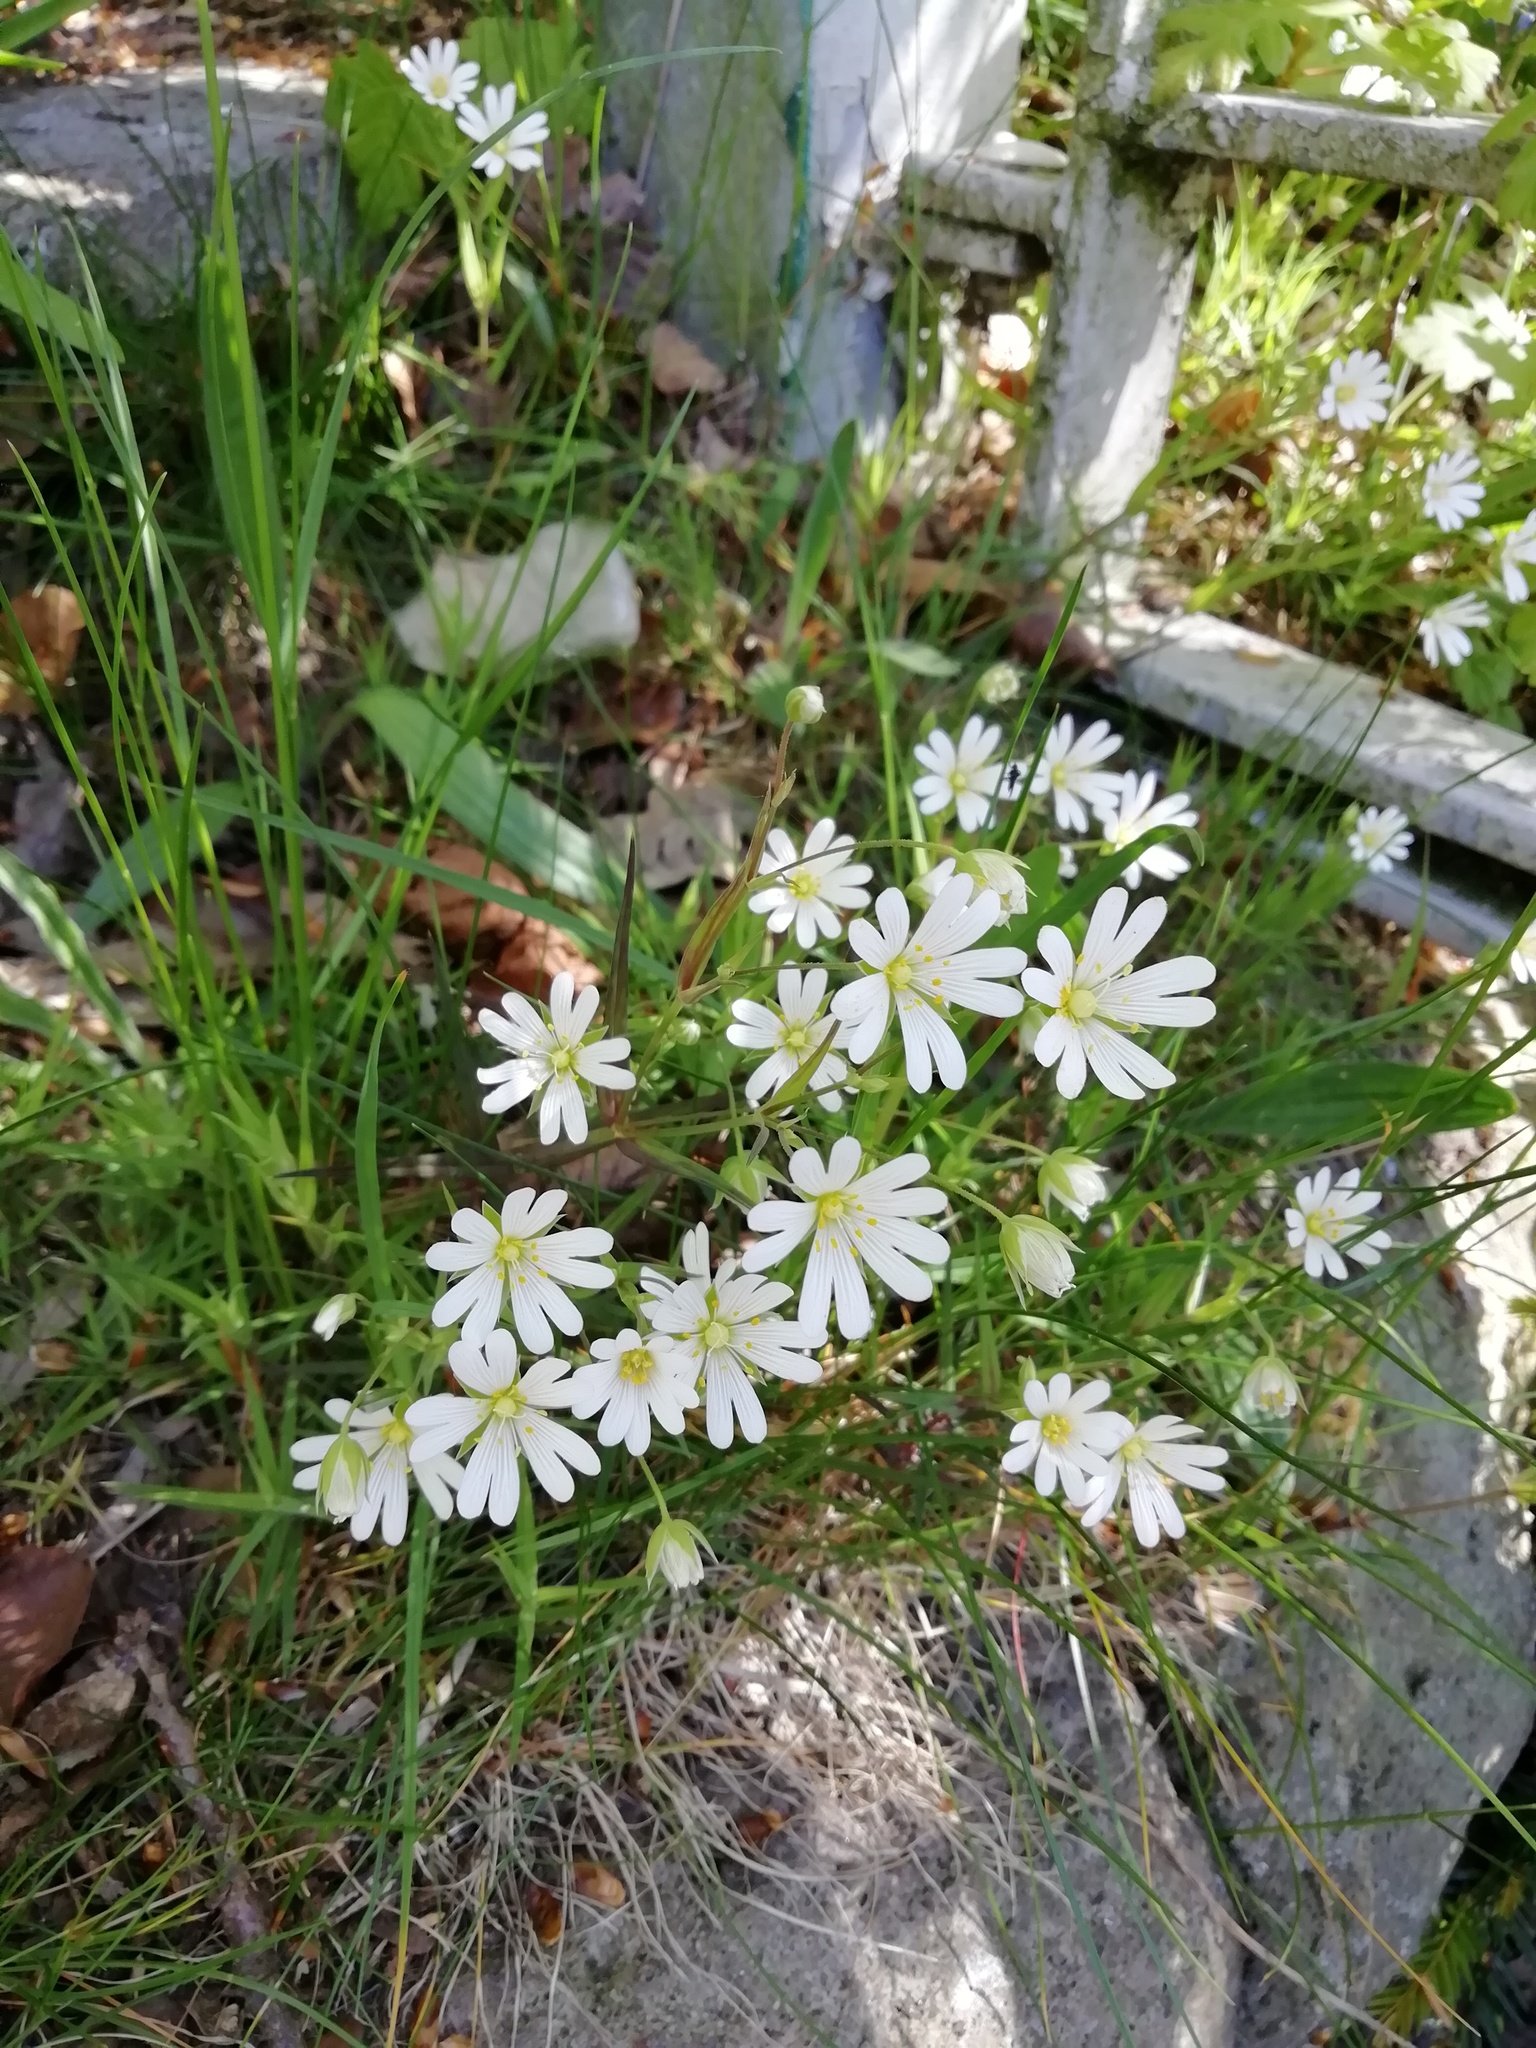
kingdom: Plantae
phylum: Tracheophyta
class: Magnoliopsida
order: Caryophyllales
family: Caryophyllaceae
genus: Rabelera
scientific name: Rabelera holostea
